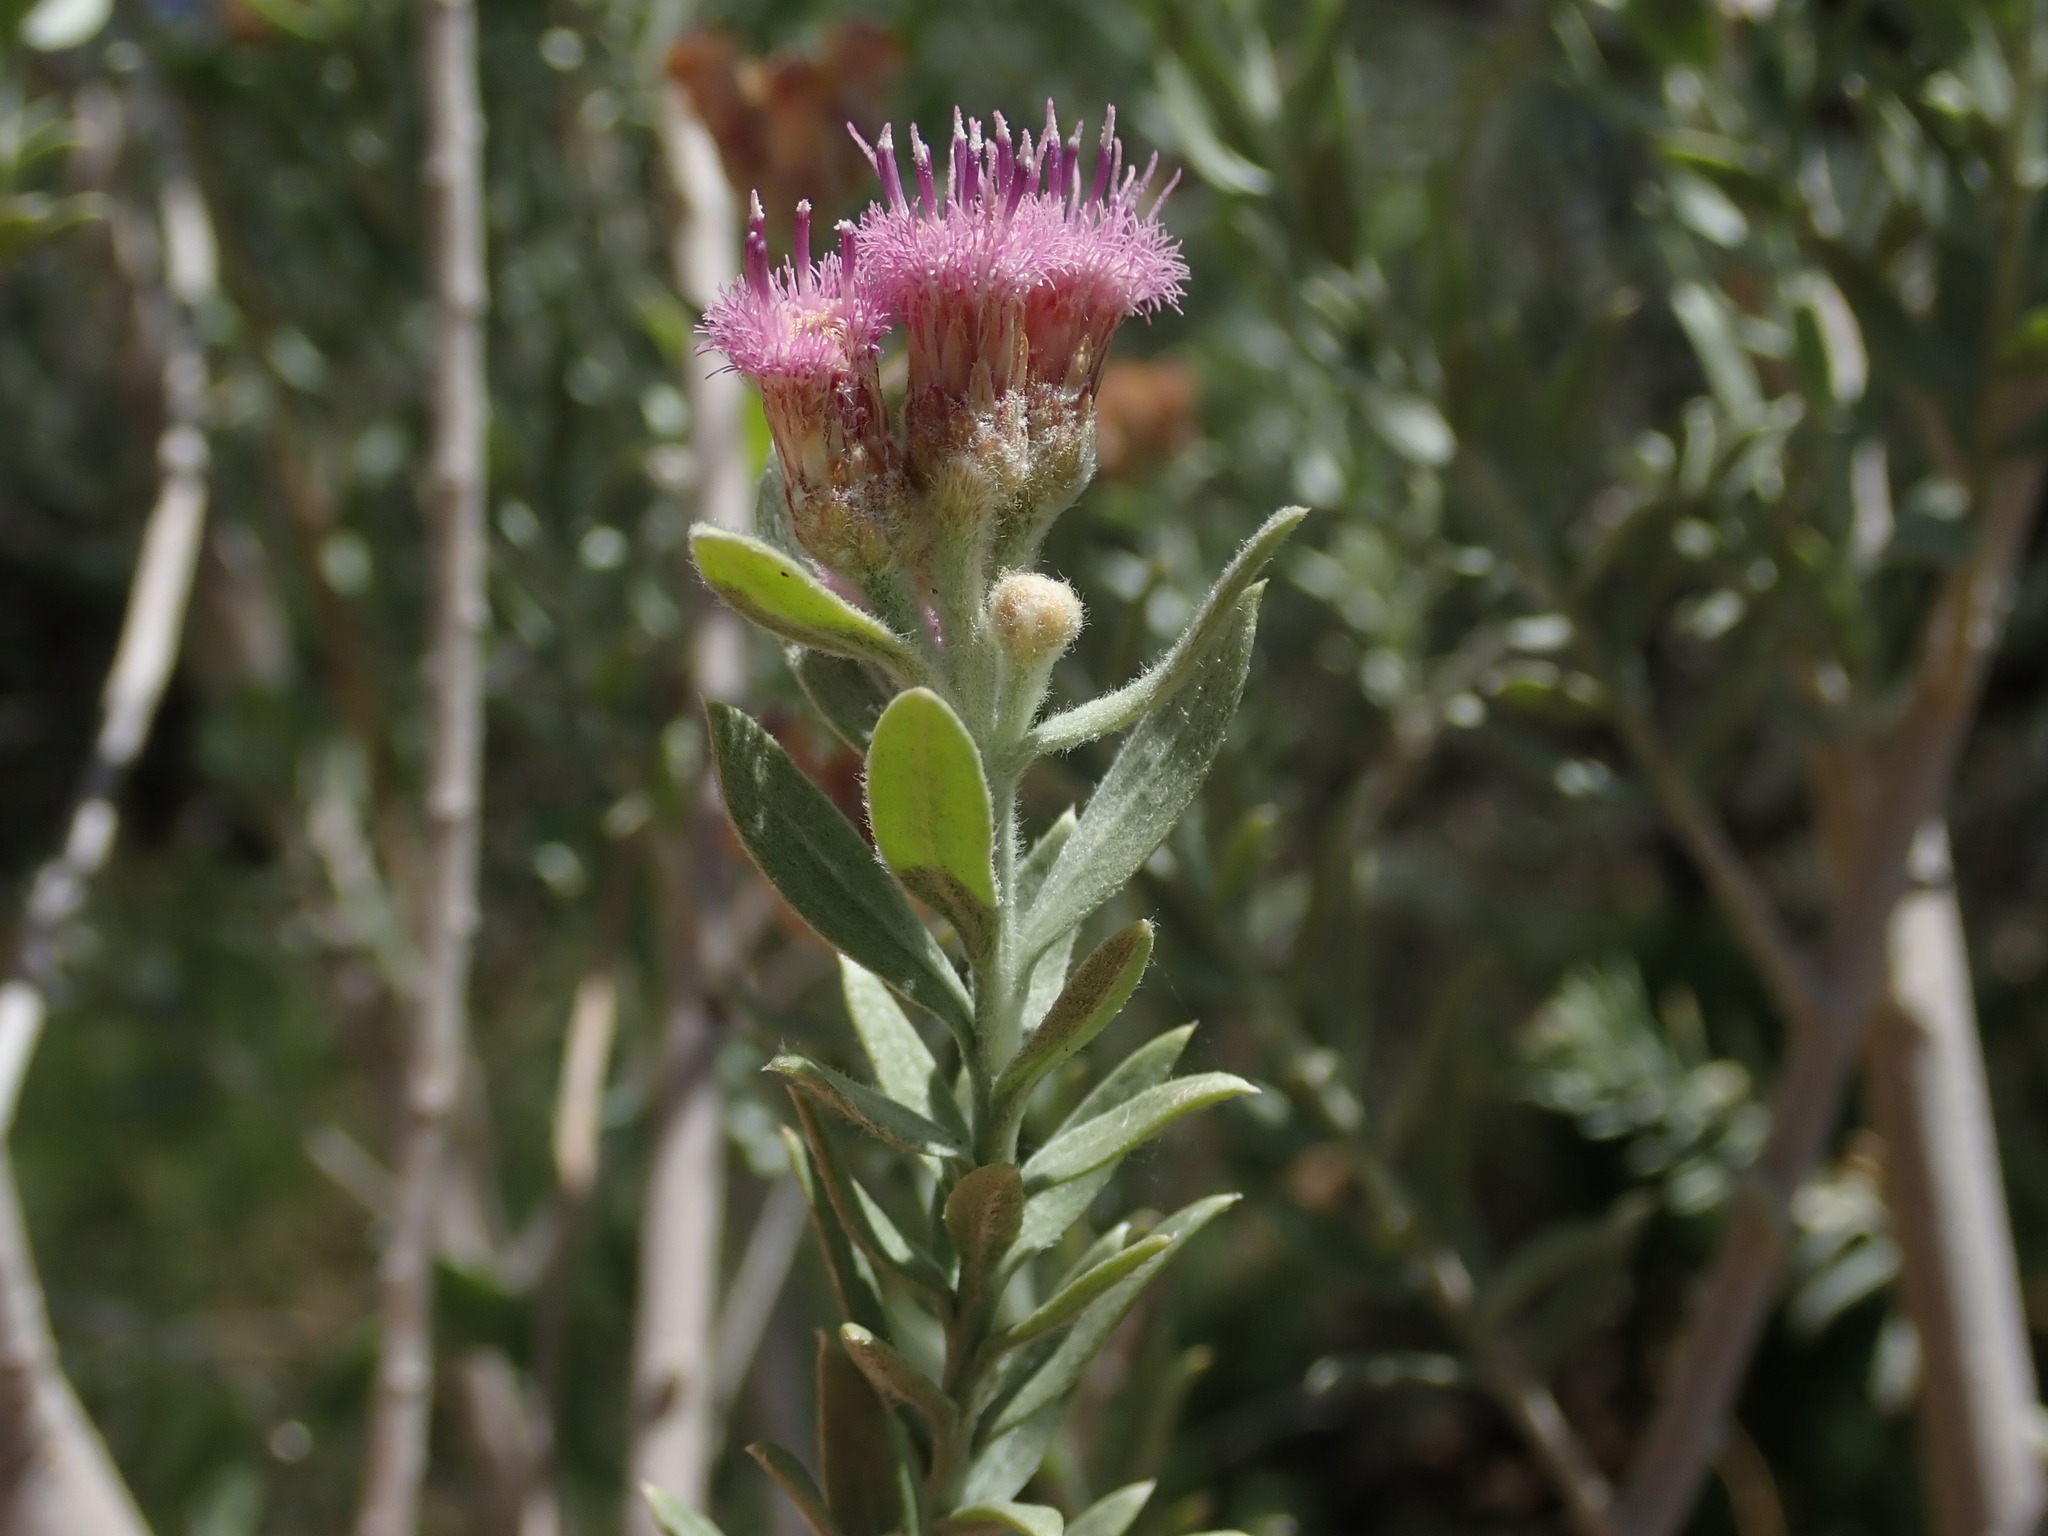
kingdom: Plantae
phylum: Tracheophyta
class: Magnoliopsida
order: Asterales
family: Asteraceae
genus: Pluchea
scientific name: Pluchea sericea
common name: Arrow-weed
